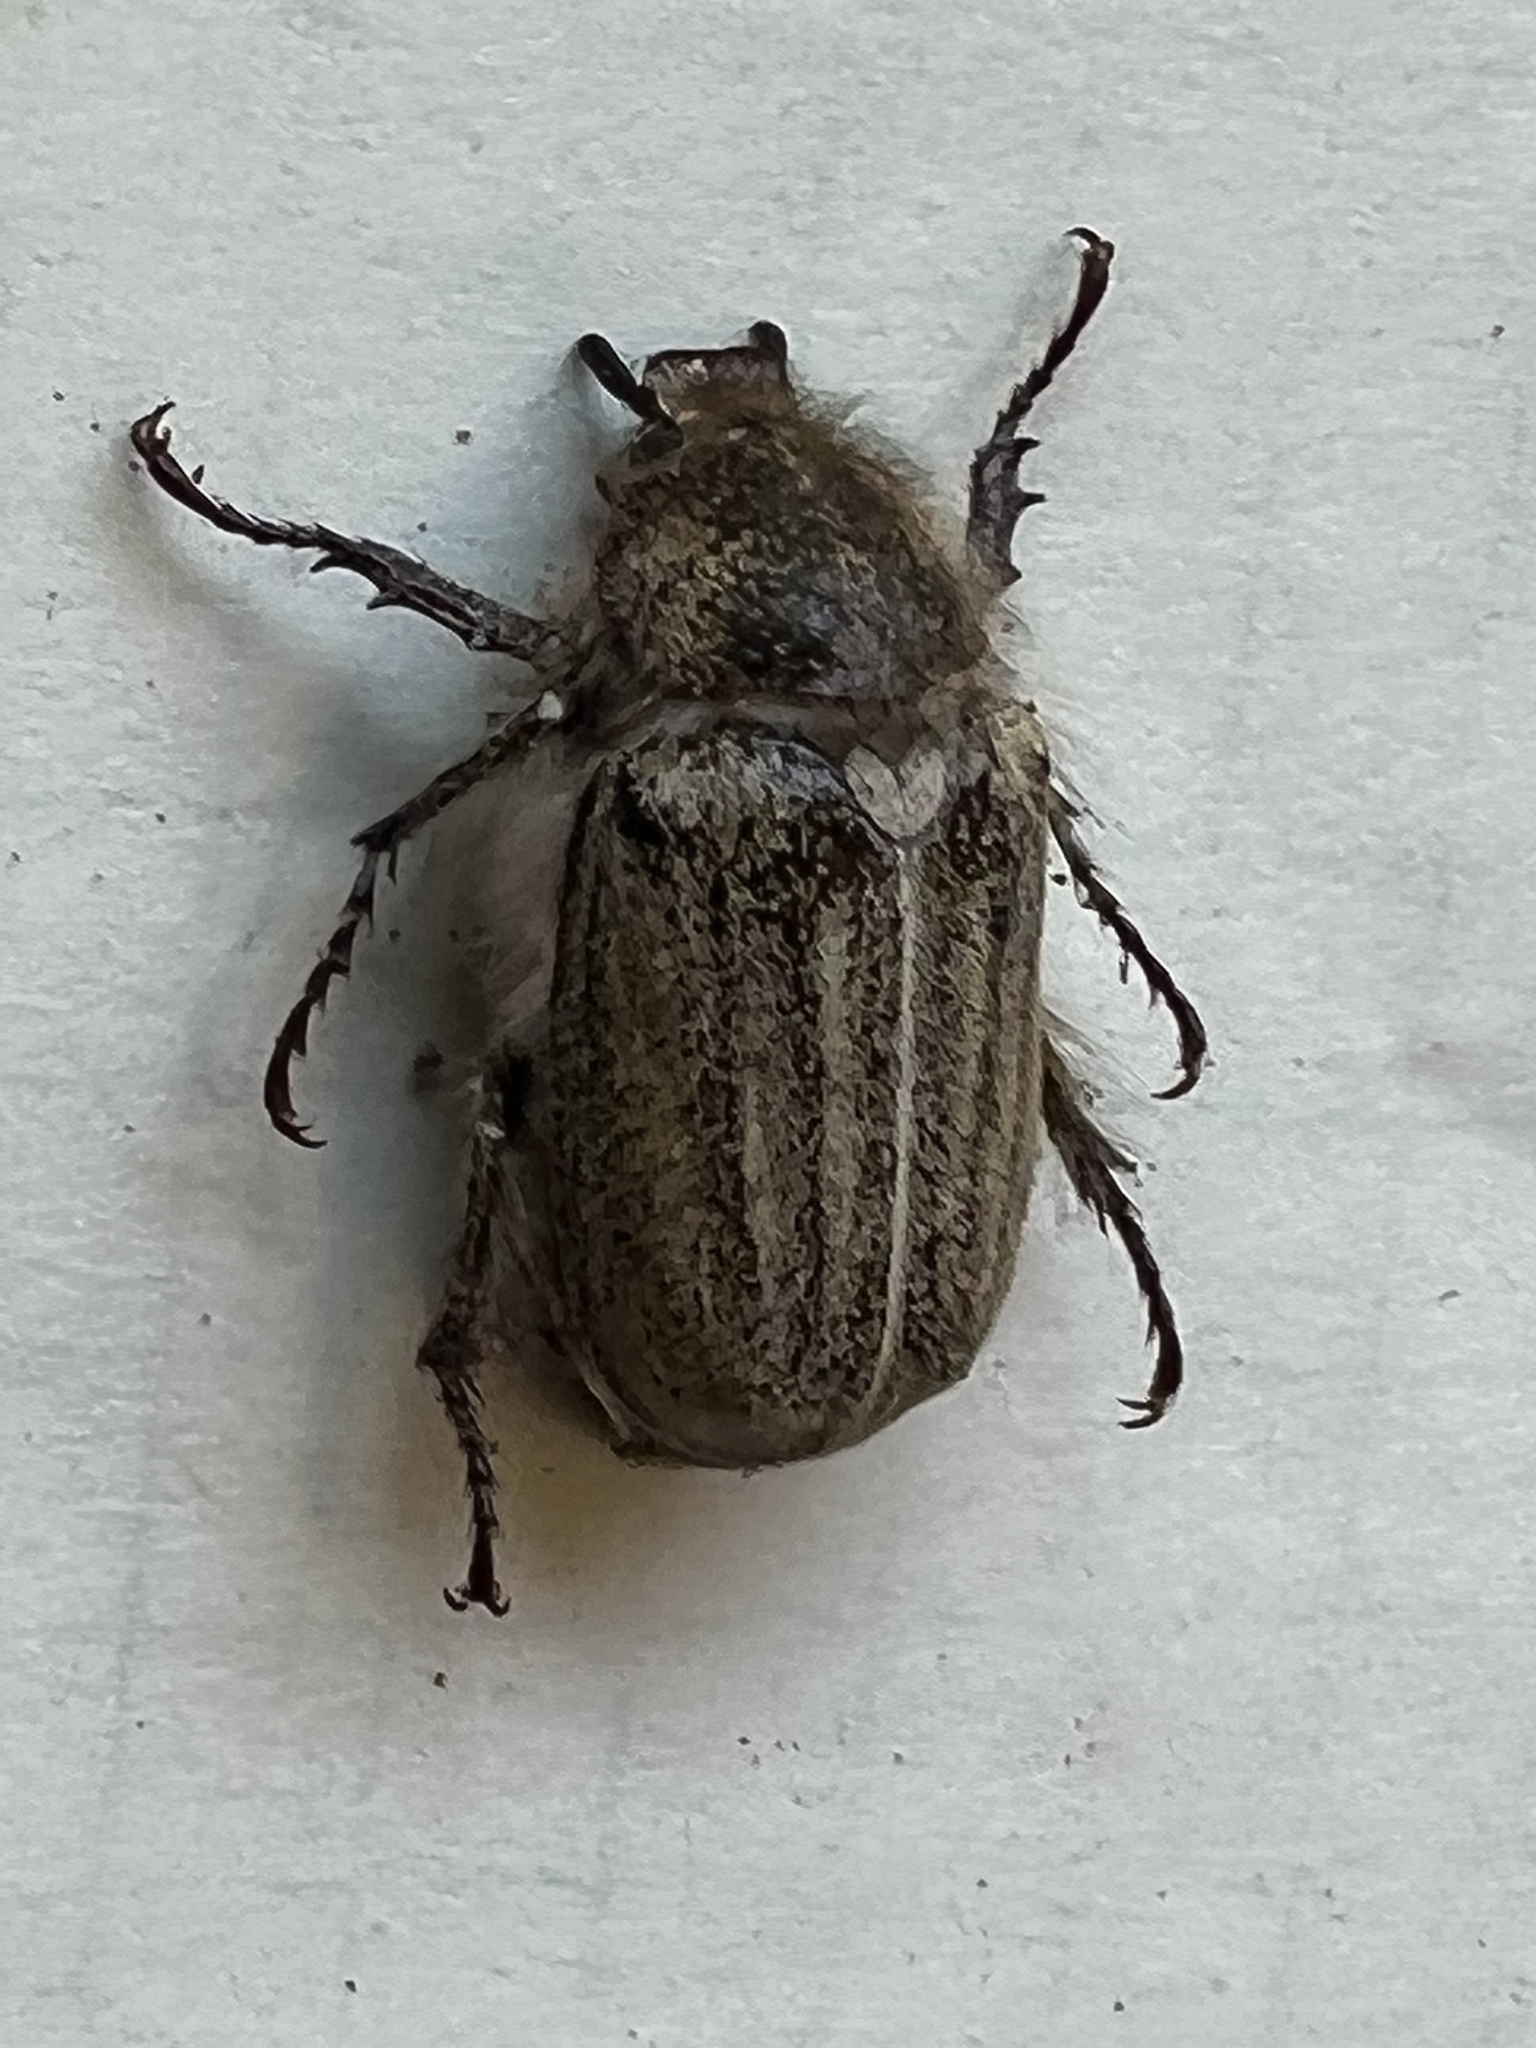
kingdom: Animalia
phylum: Arthropoda
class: Insecta
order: Coleoptera
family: Scarabaeidae
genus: Amblonoxia
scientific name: Amblonoxia harfordi
